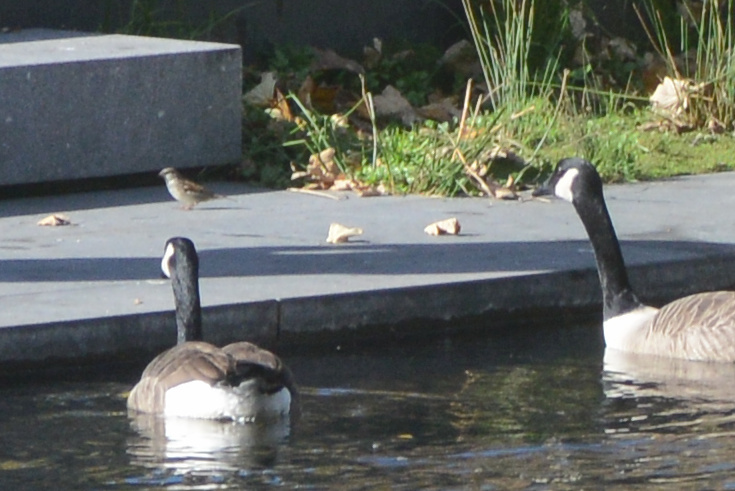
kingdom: Animalia
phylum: Chordata
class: Aves
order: Passeriformes
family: Passeridae
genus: Passer
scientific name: Passer domesticus
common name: House sparrow
